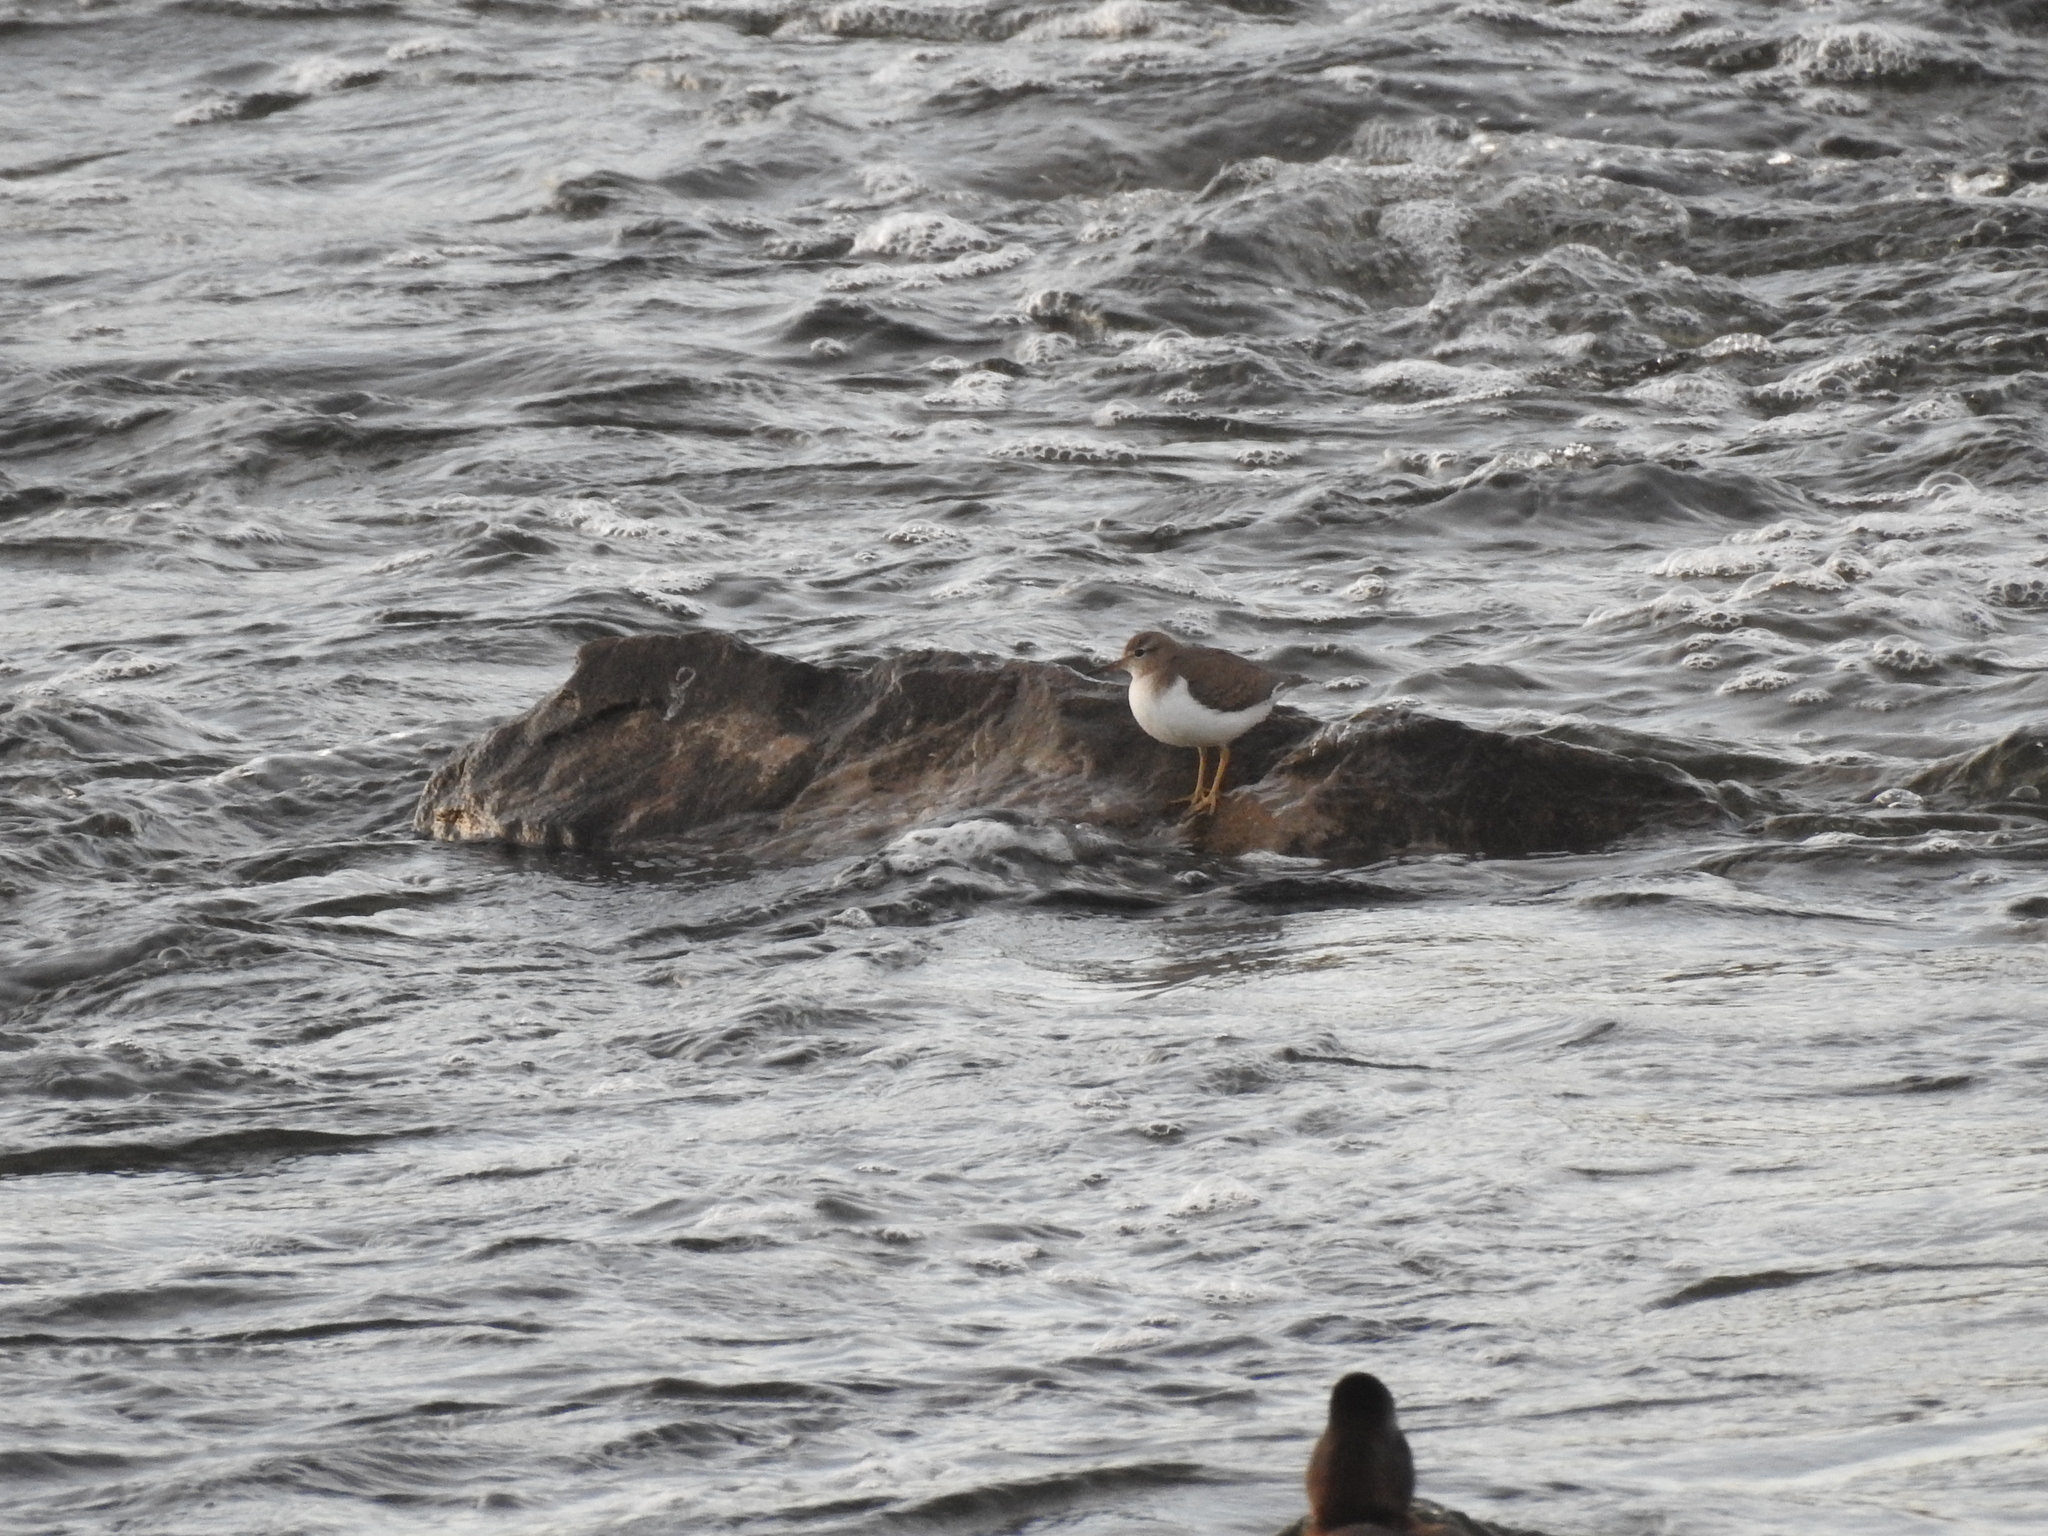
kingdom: Animalia
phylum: Chordata
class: Aves
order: Charadriiformes
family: Scolopacidae
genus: Actitis
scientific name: Actitis macularius
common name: Spotted sandpiper
